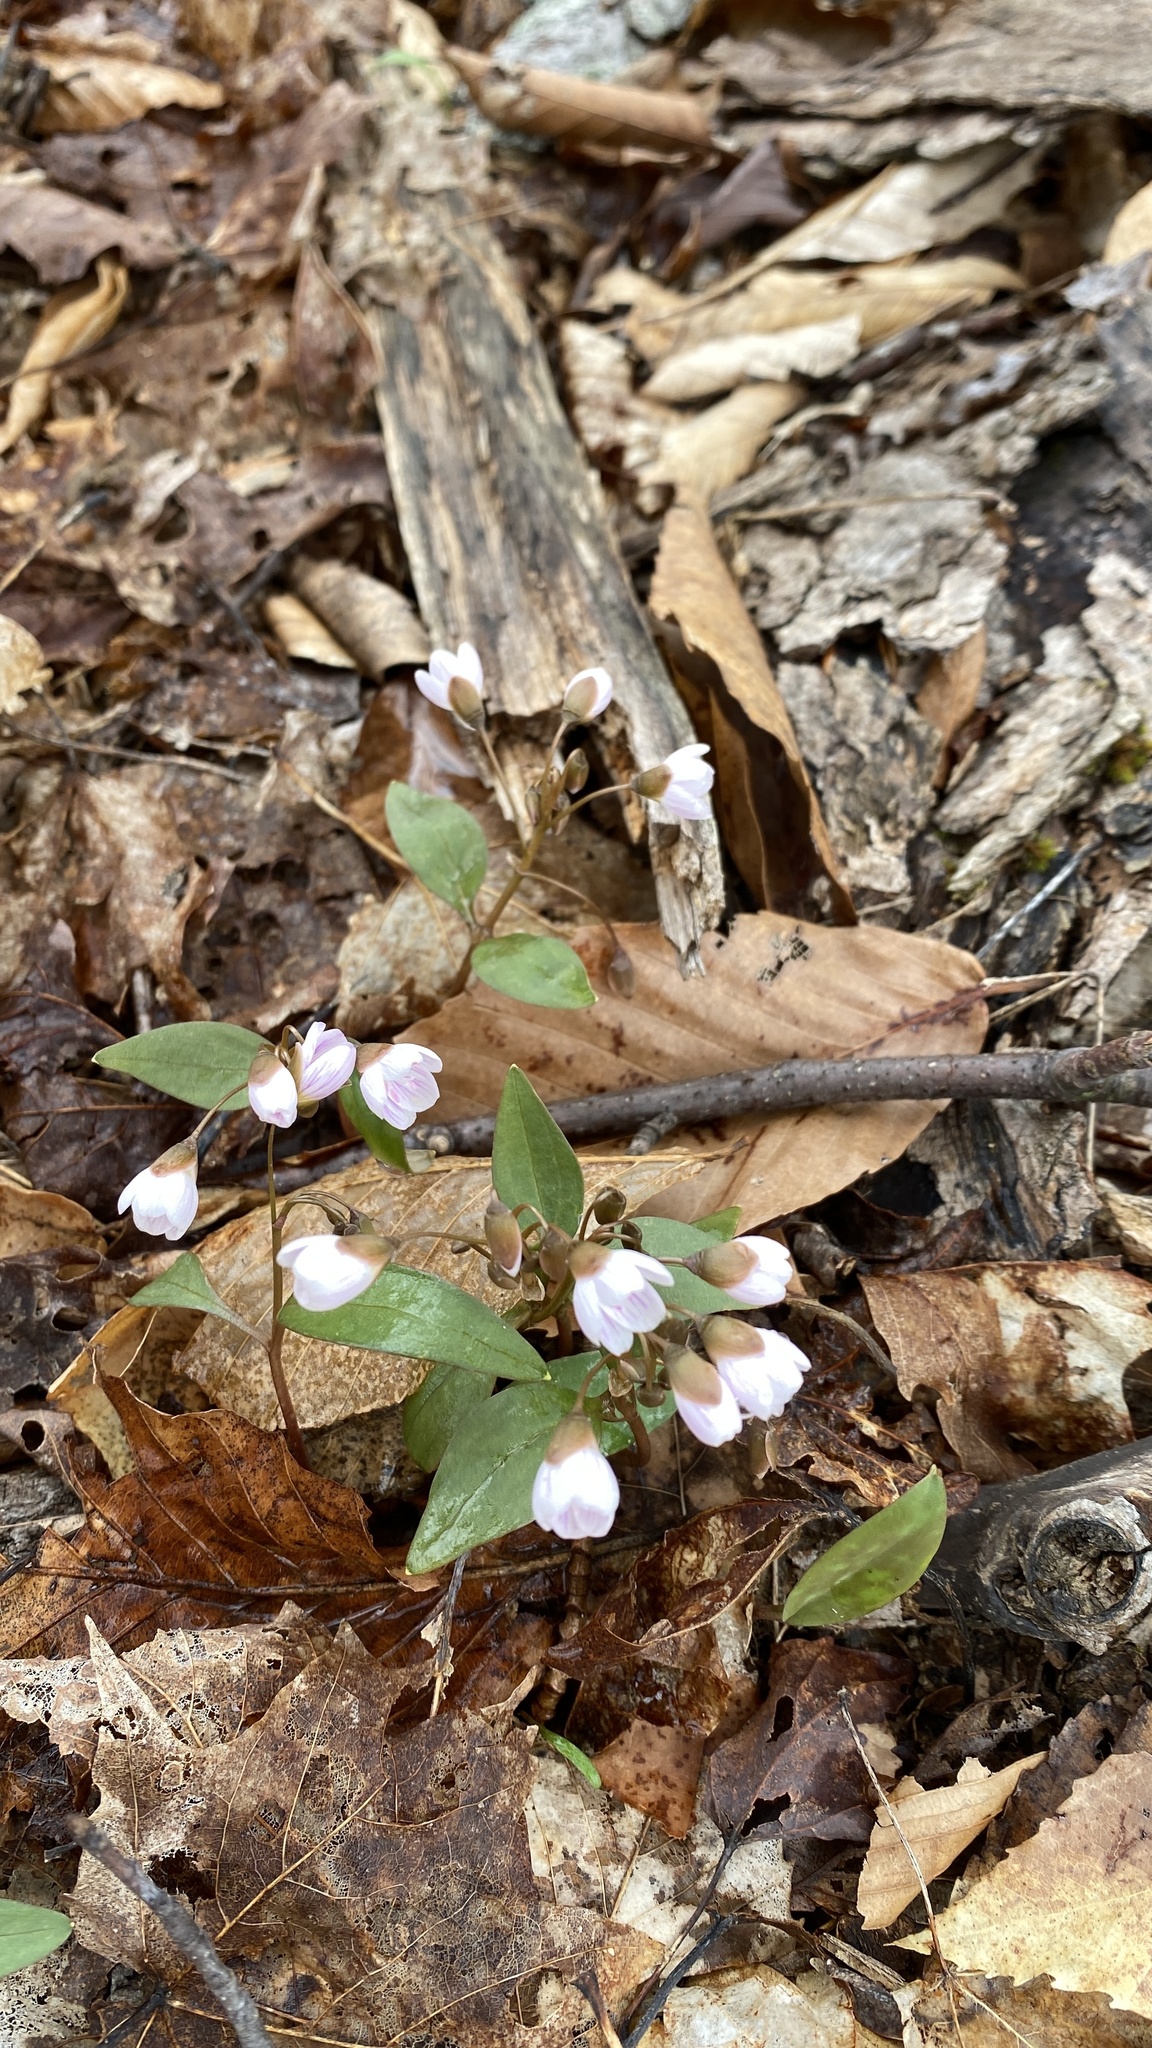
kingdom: Plantae
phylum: Tracheophyta
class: Magnoliopsida
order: Caryophyllales
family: Montiaceae
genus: Claytonia
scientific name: Claytonia caroliniana
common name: Carolina spring beauty
